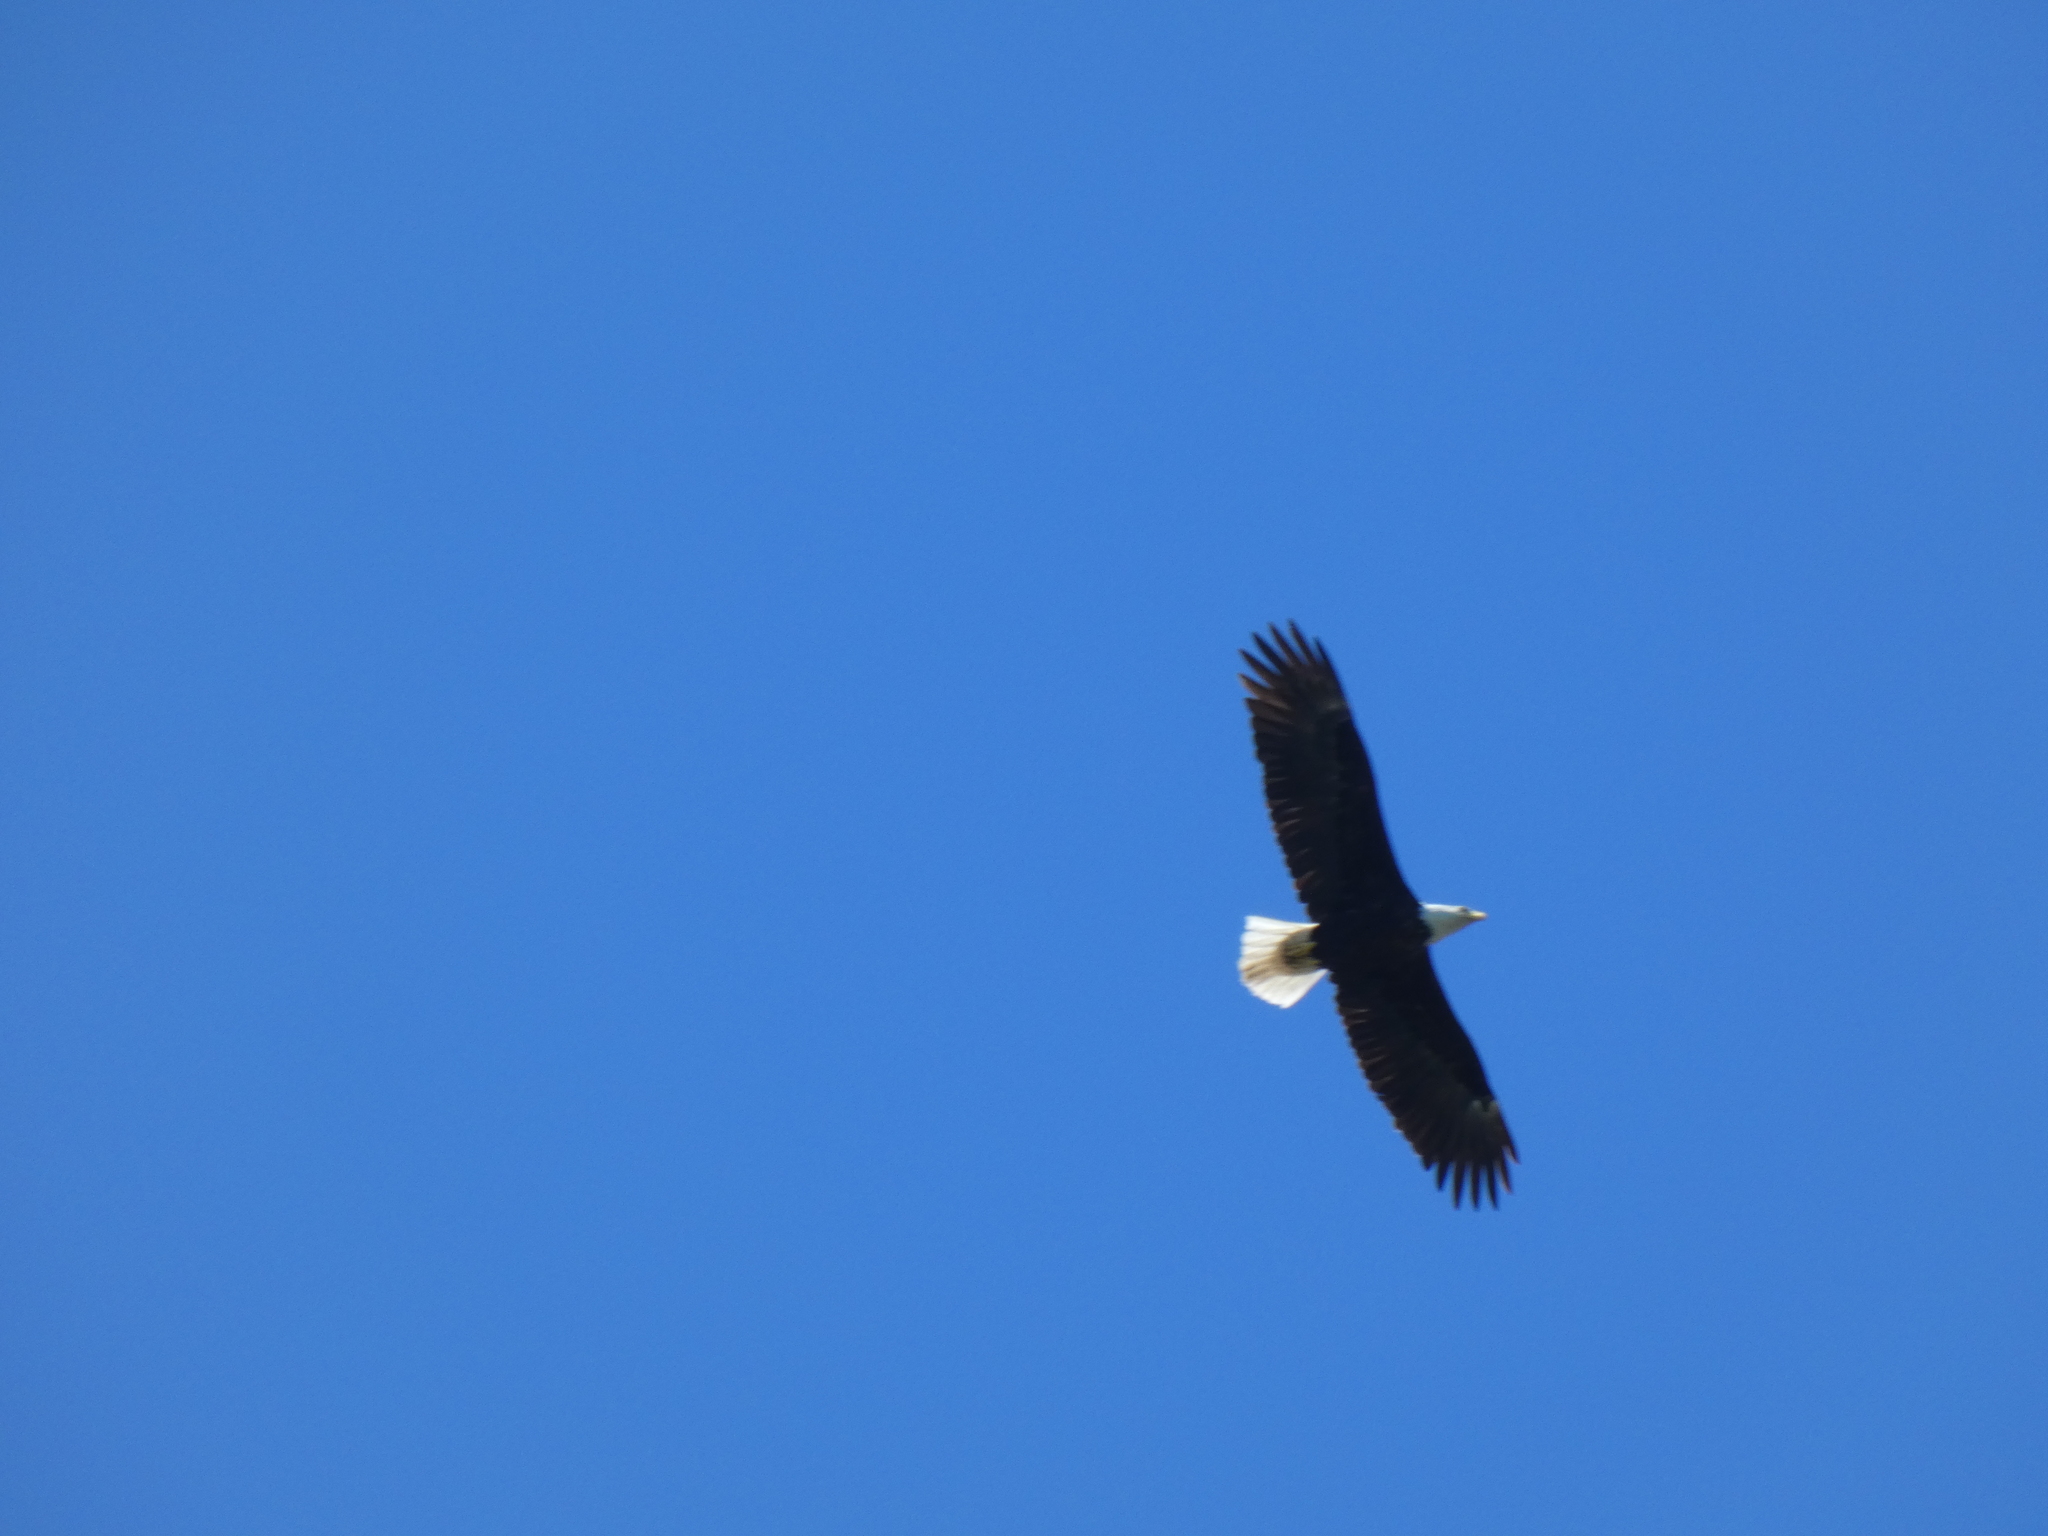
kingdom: Animalia
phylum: Chordata
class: Aves
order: Accipitriformes
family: Accipitridae
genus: Haliaeetus
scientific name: Haliaeetus leucocephalus
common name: Bald eagle
